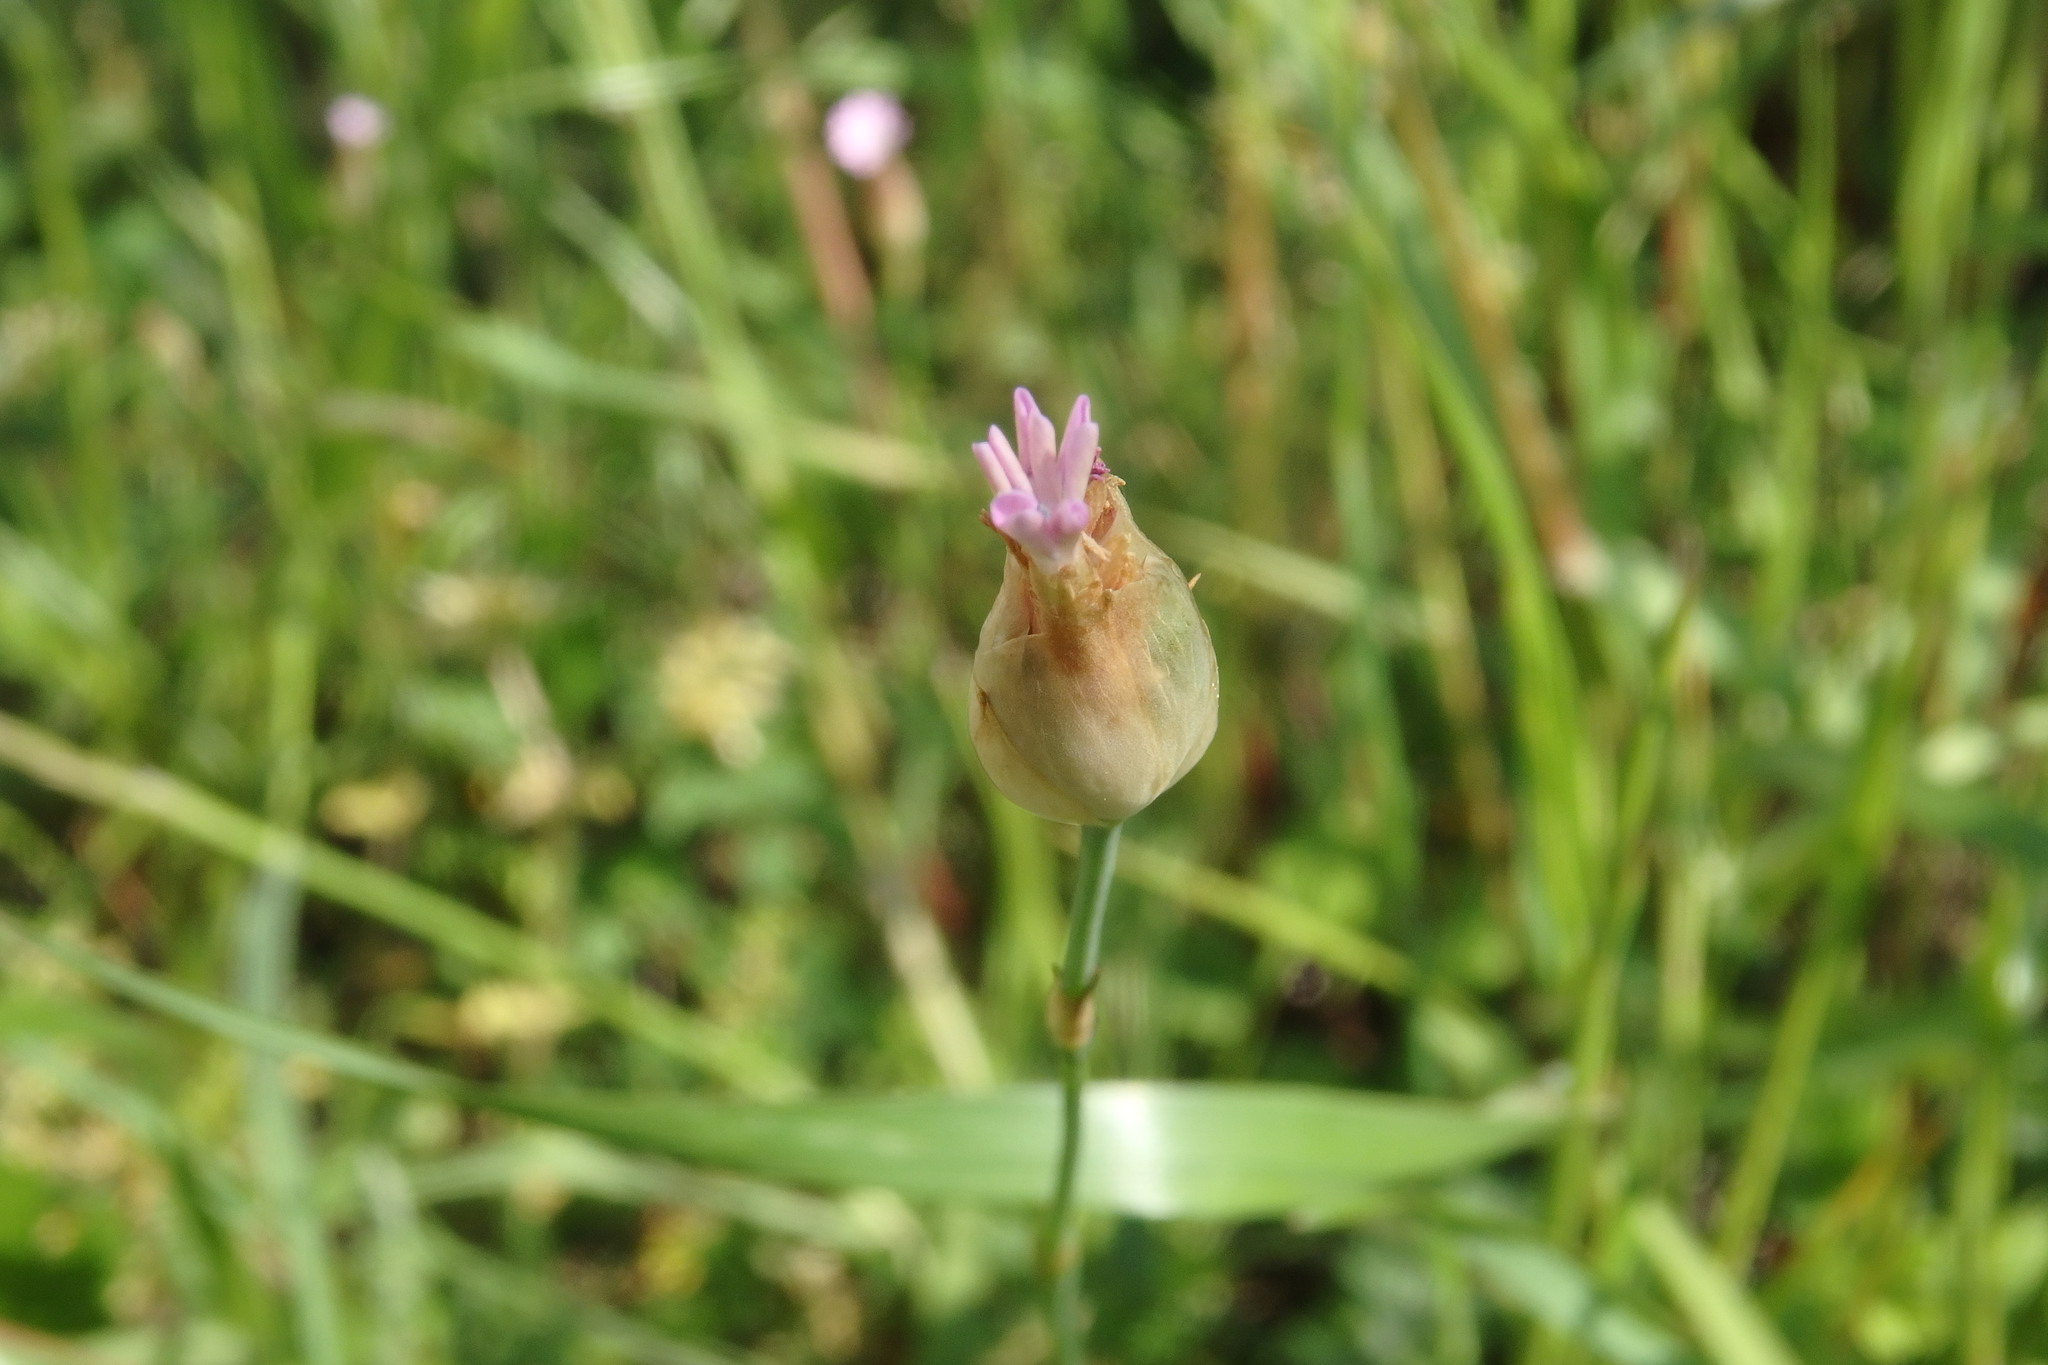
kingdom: Plantae
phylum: Tracheophyta
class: Magnoliopsida
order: Caryophyllales
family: Caryophyllaceae
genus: Petrorhagia
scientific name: Petrorhagia nanteuilii
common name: Proliferous pink
